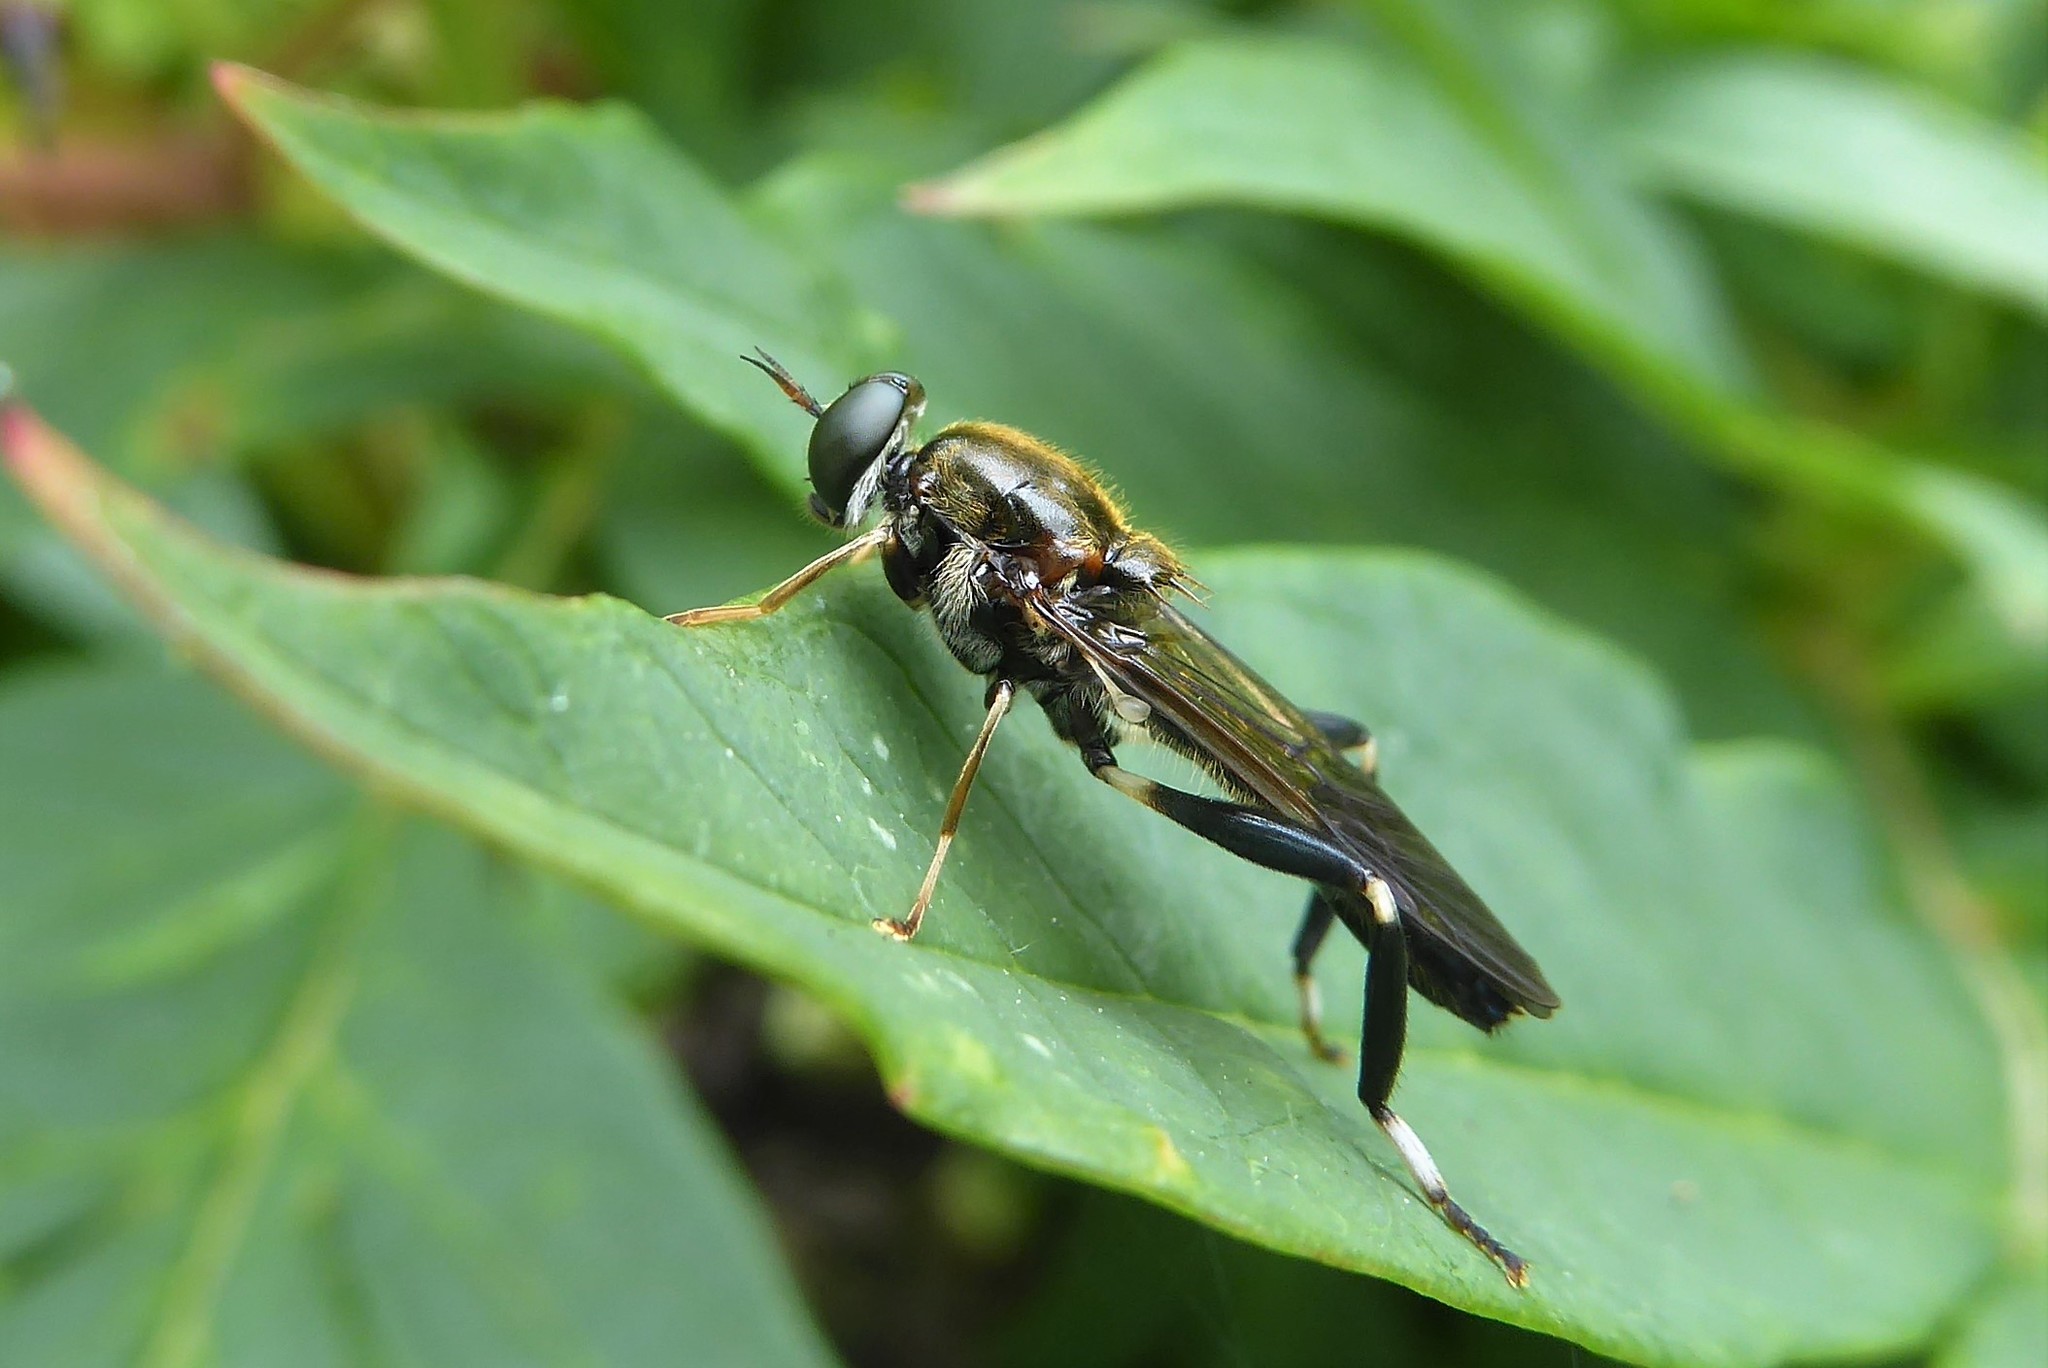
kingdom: Animalia
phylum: Arthropoda
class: Insecta
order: Diptera
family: Stratiomyidae
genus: Exaireta
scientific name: Exaireta spinigera
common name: Blue soldier fly
